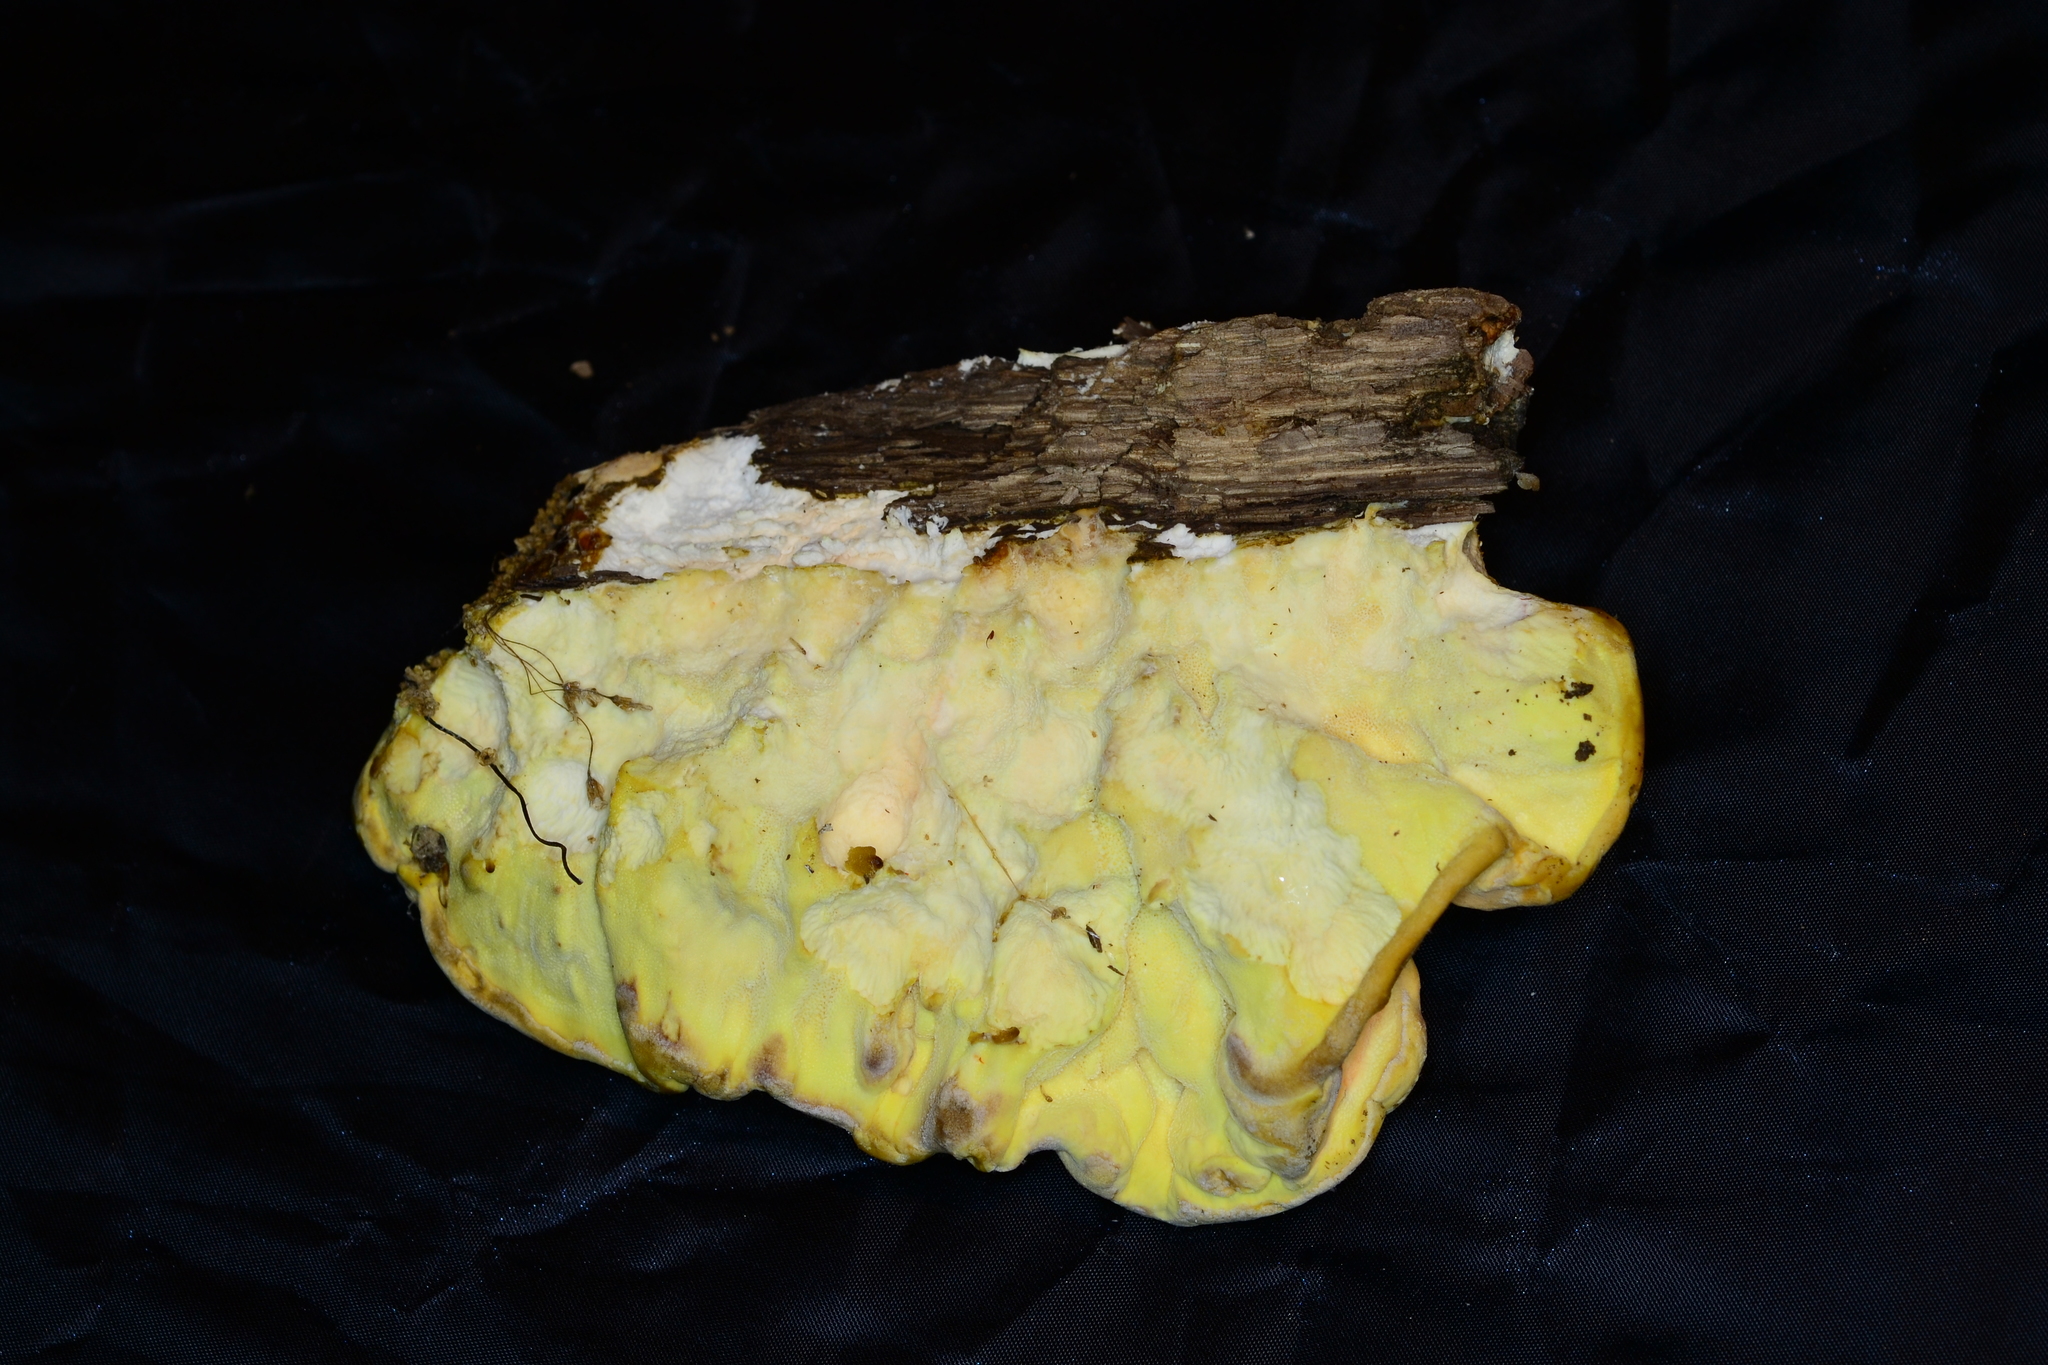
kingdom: Fungi
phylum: Basidiomycota
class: Agaricomycetes
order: Polyporales
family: Laetiporaceae
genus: Laetiporus
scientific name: Laetiporus sulphureus
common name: Chicken of the woods
